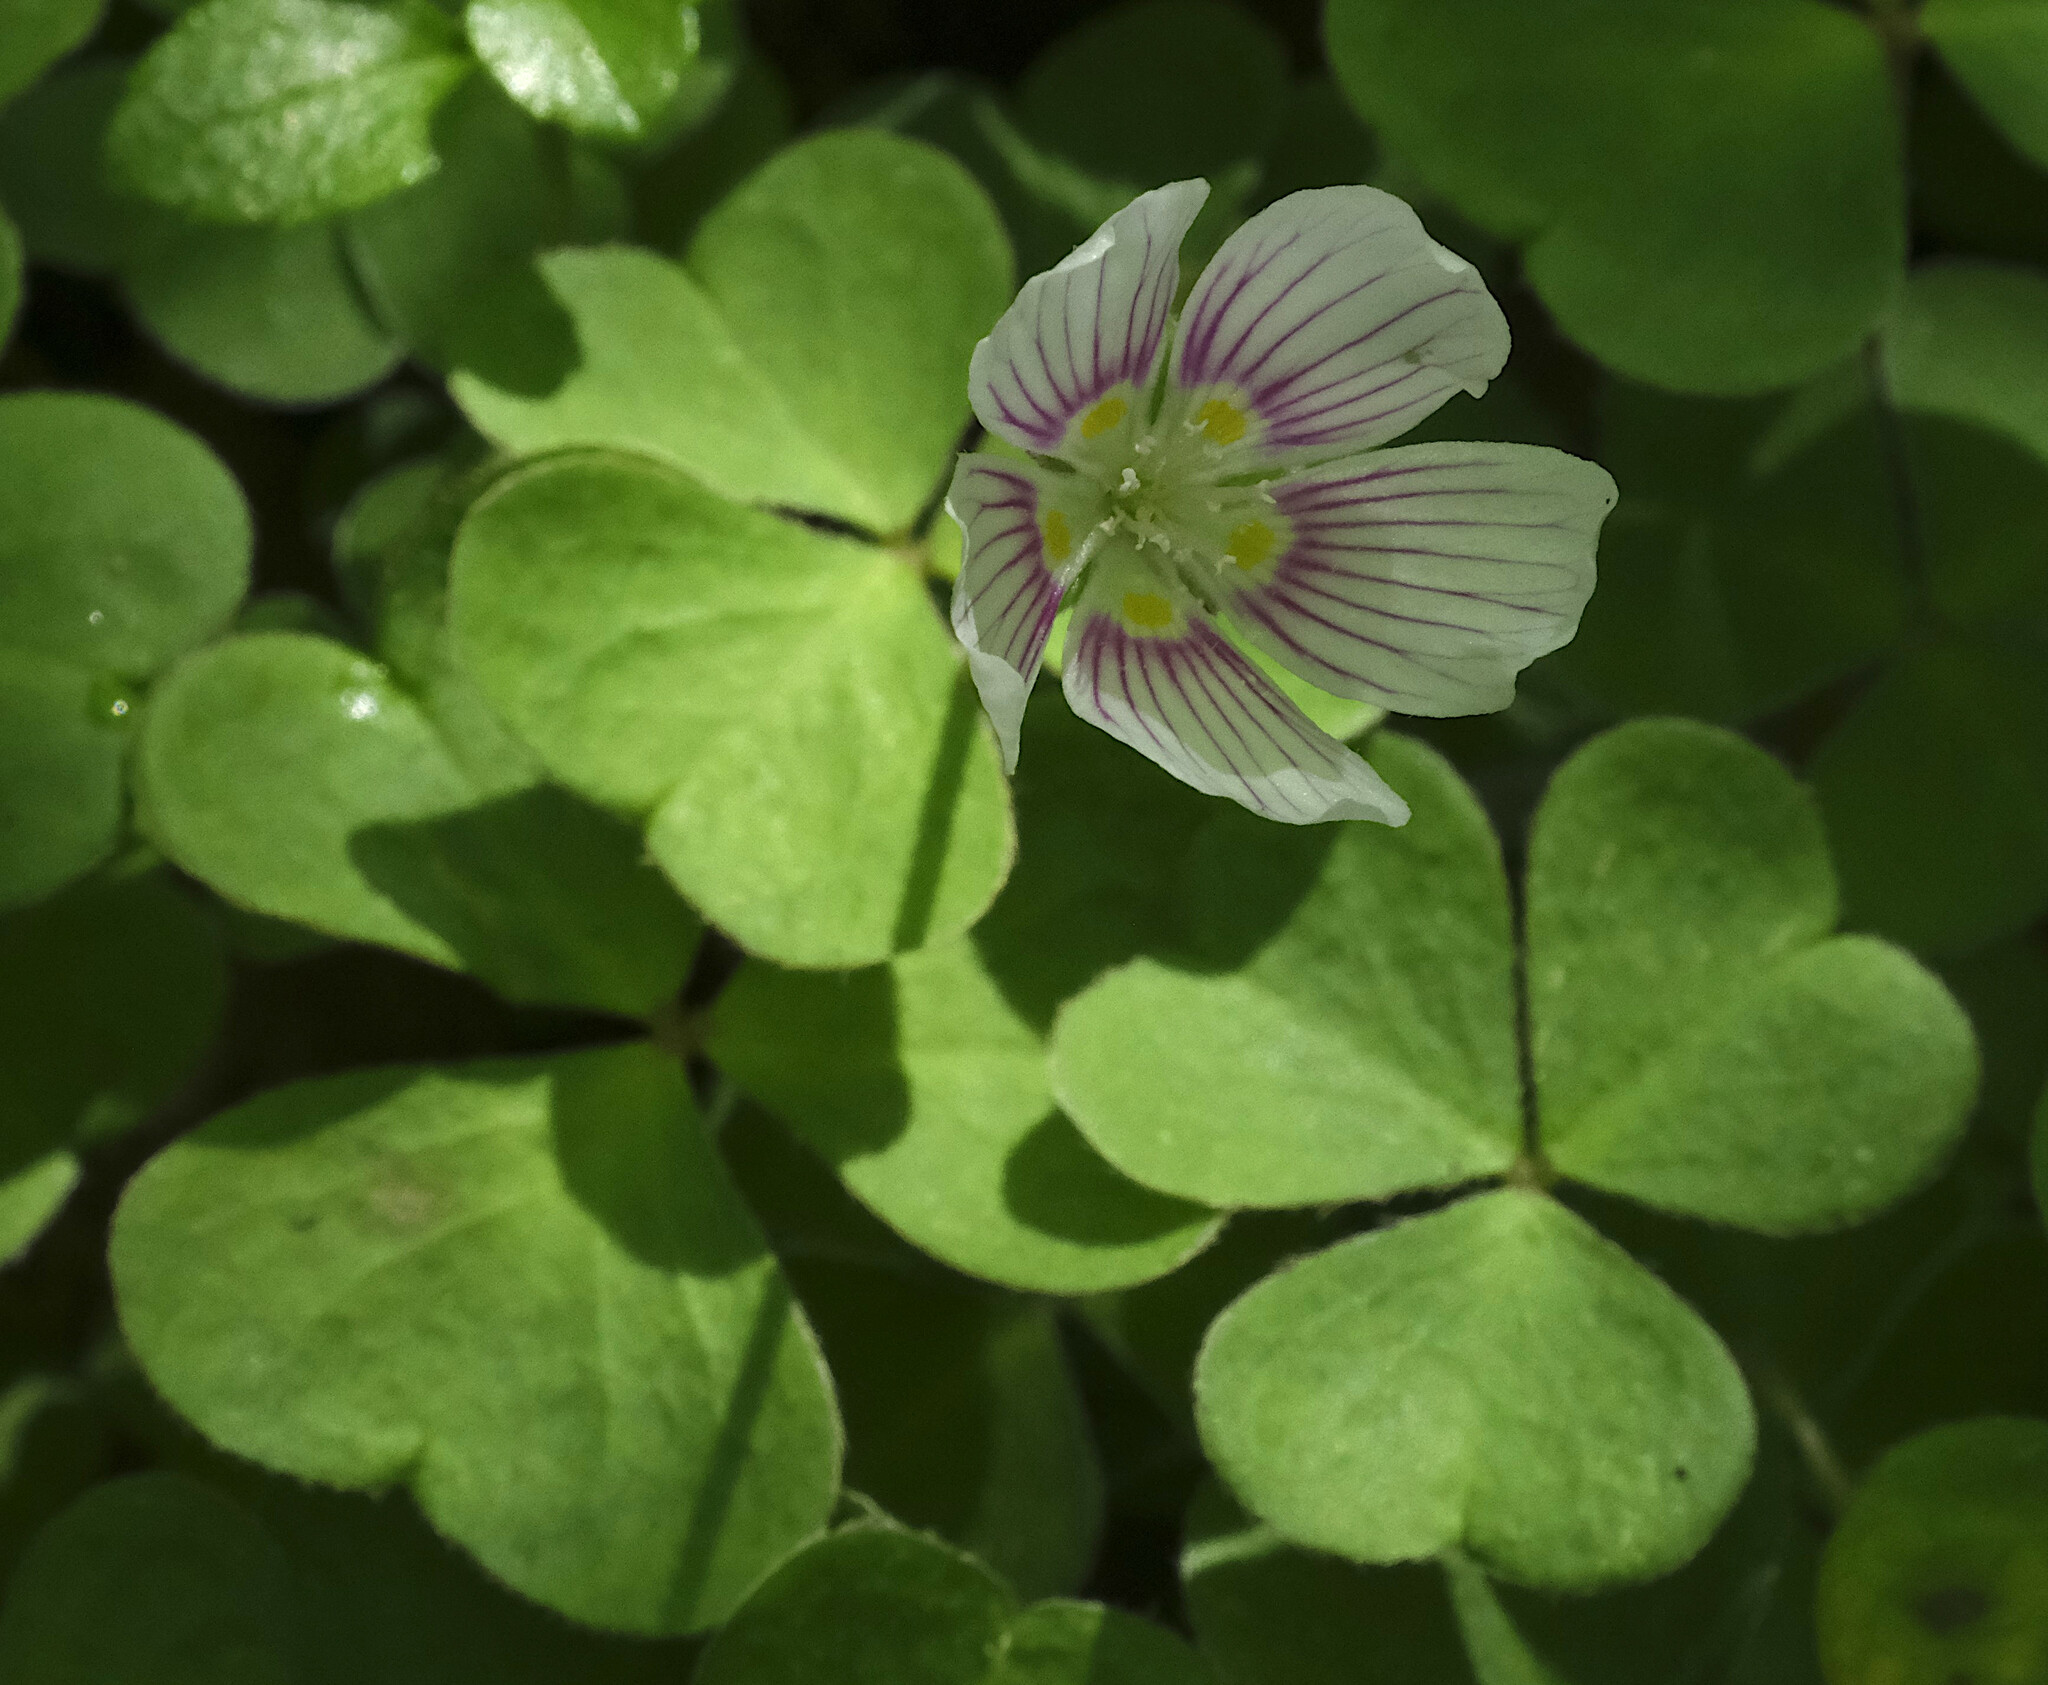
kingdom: Plantae
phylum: Tracheophyta
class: Magnoliopsida
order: Oxalidales
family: Oxalidaceae
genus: Oxalis
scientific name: Oxalis montana
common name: American wood-sorrel
